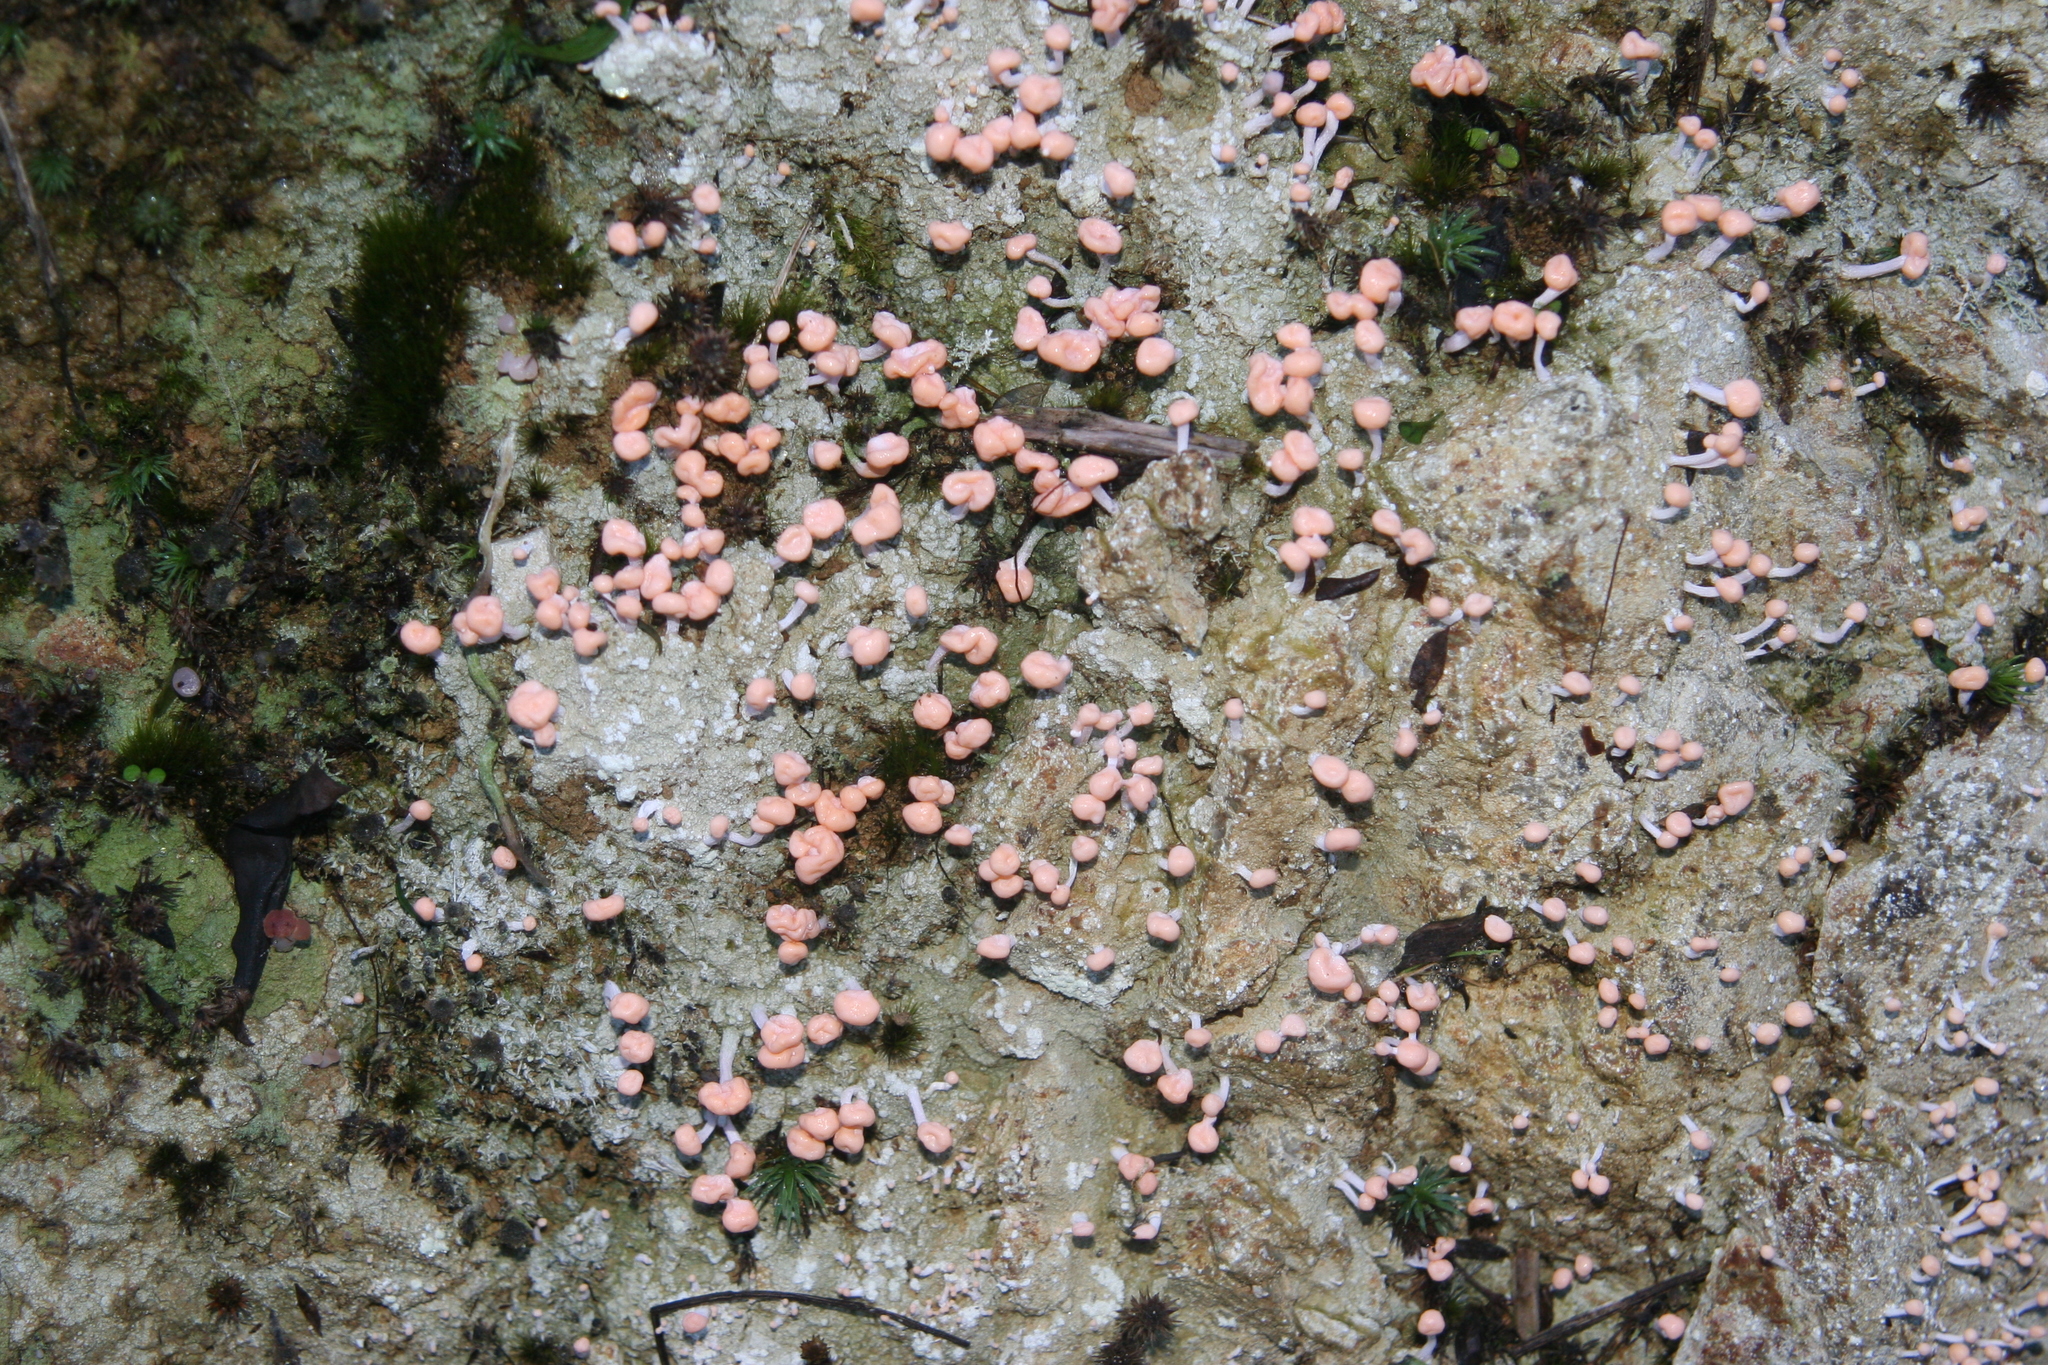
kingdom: Fungi
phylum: Ascomycota
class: Lecanoromycetes
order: Pertusariales
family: Icmadophilaceae
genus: Dibaeis
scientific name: Dibaeis arcuata
